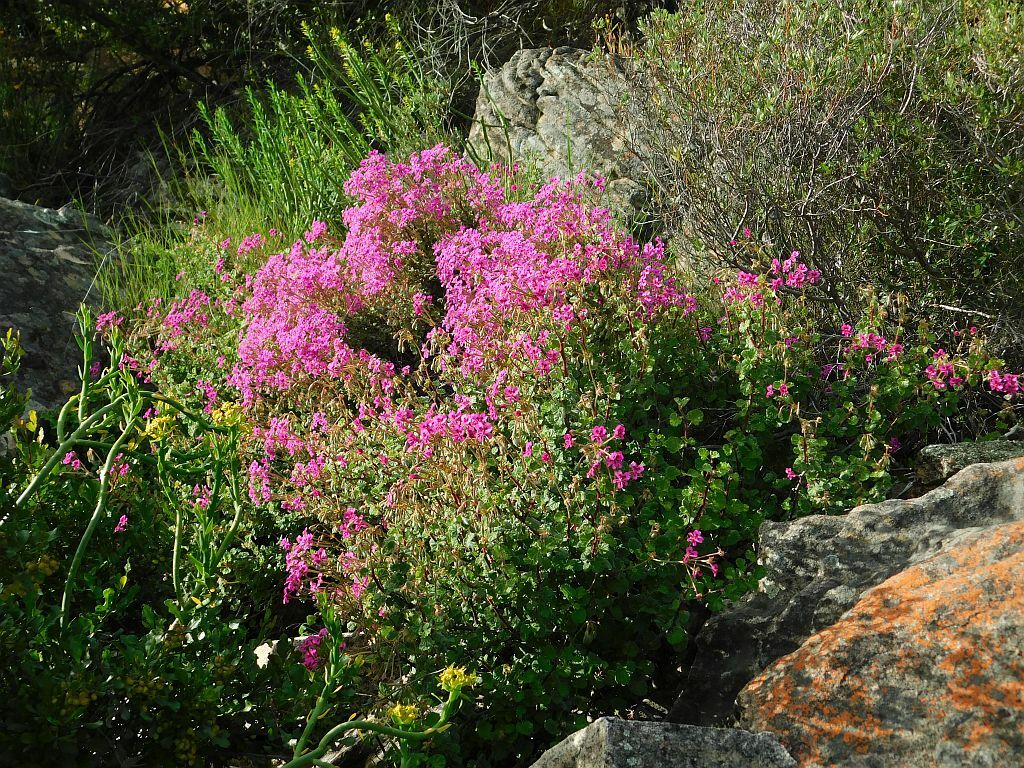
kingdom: Plantae
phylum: Tracheophyta
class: Magnoliopsida
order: Geraniales
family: Geraniaceae
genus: Pelargonium
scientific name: Pelargonium magenteum
